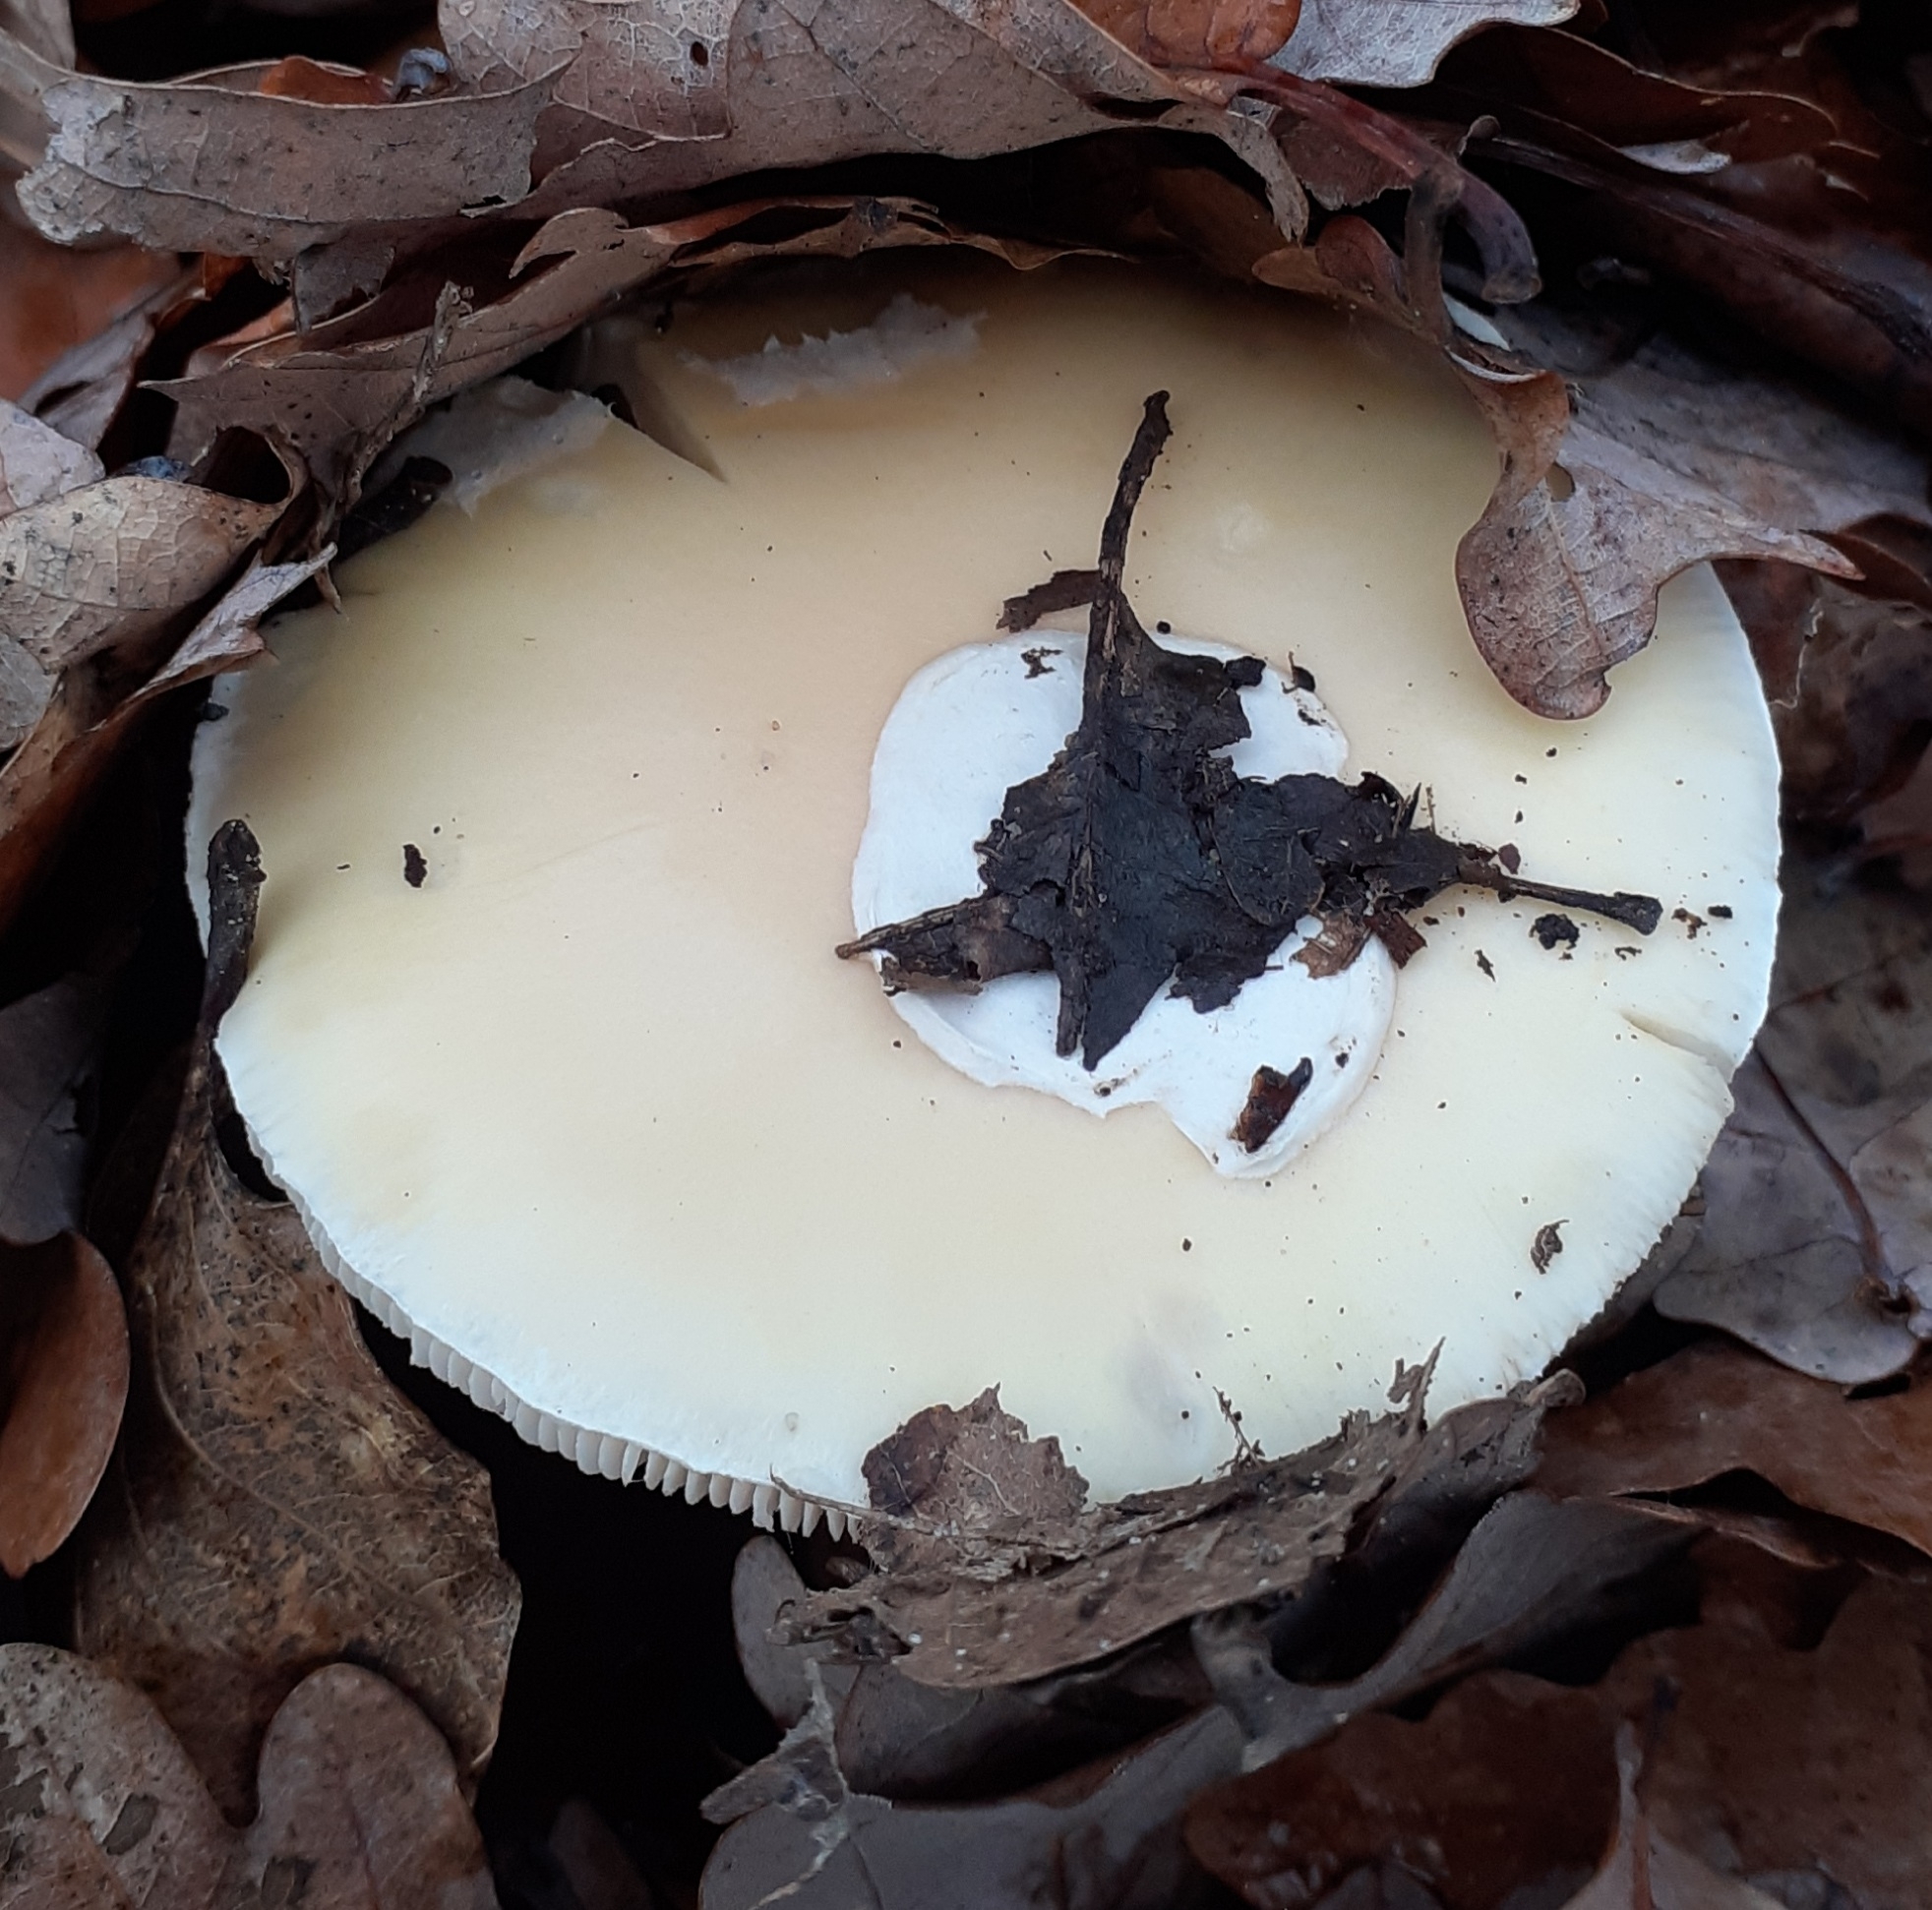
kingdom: Fungi
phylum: Basidiomycota
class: Agaricomycetes
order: Agaricales
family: Amanitaceae
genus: Amanita
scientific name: Amanita gemmata
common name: Jewelled amanita
